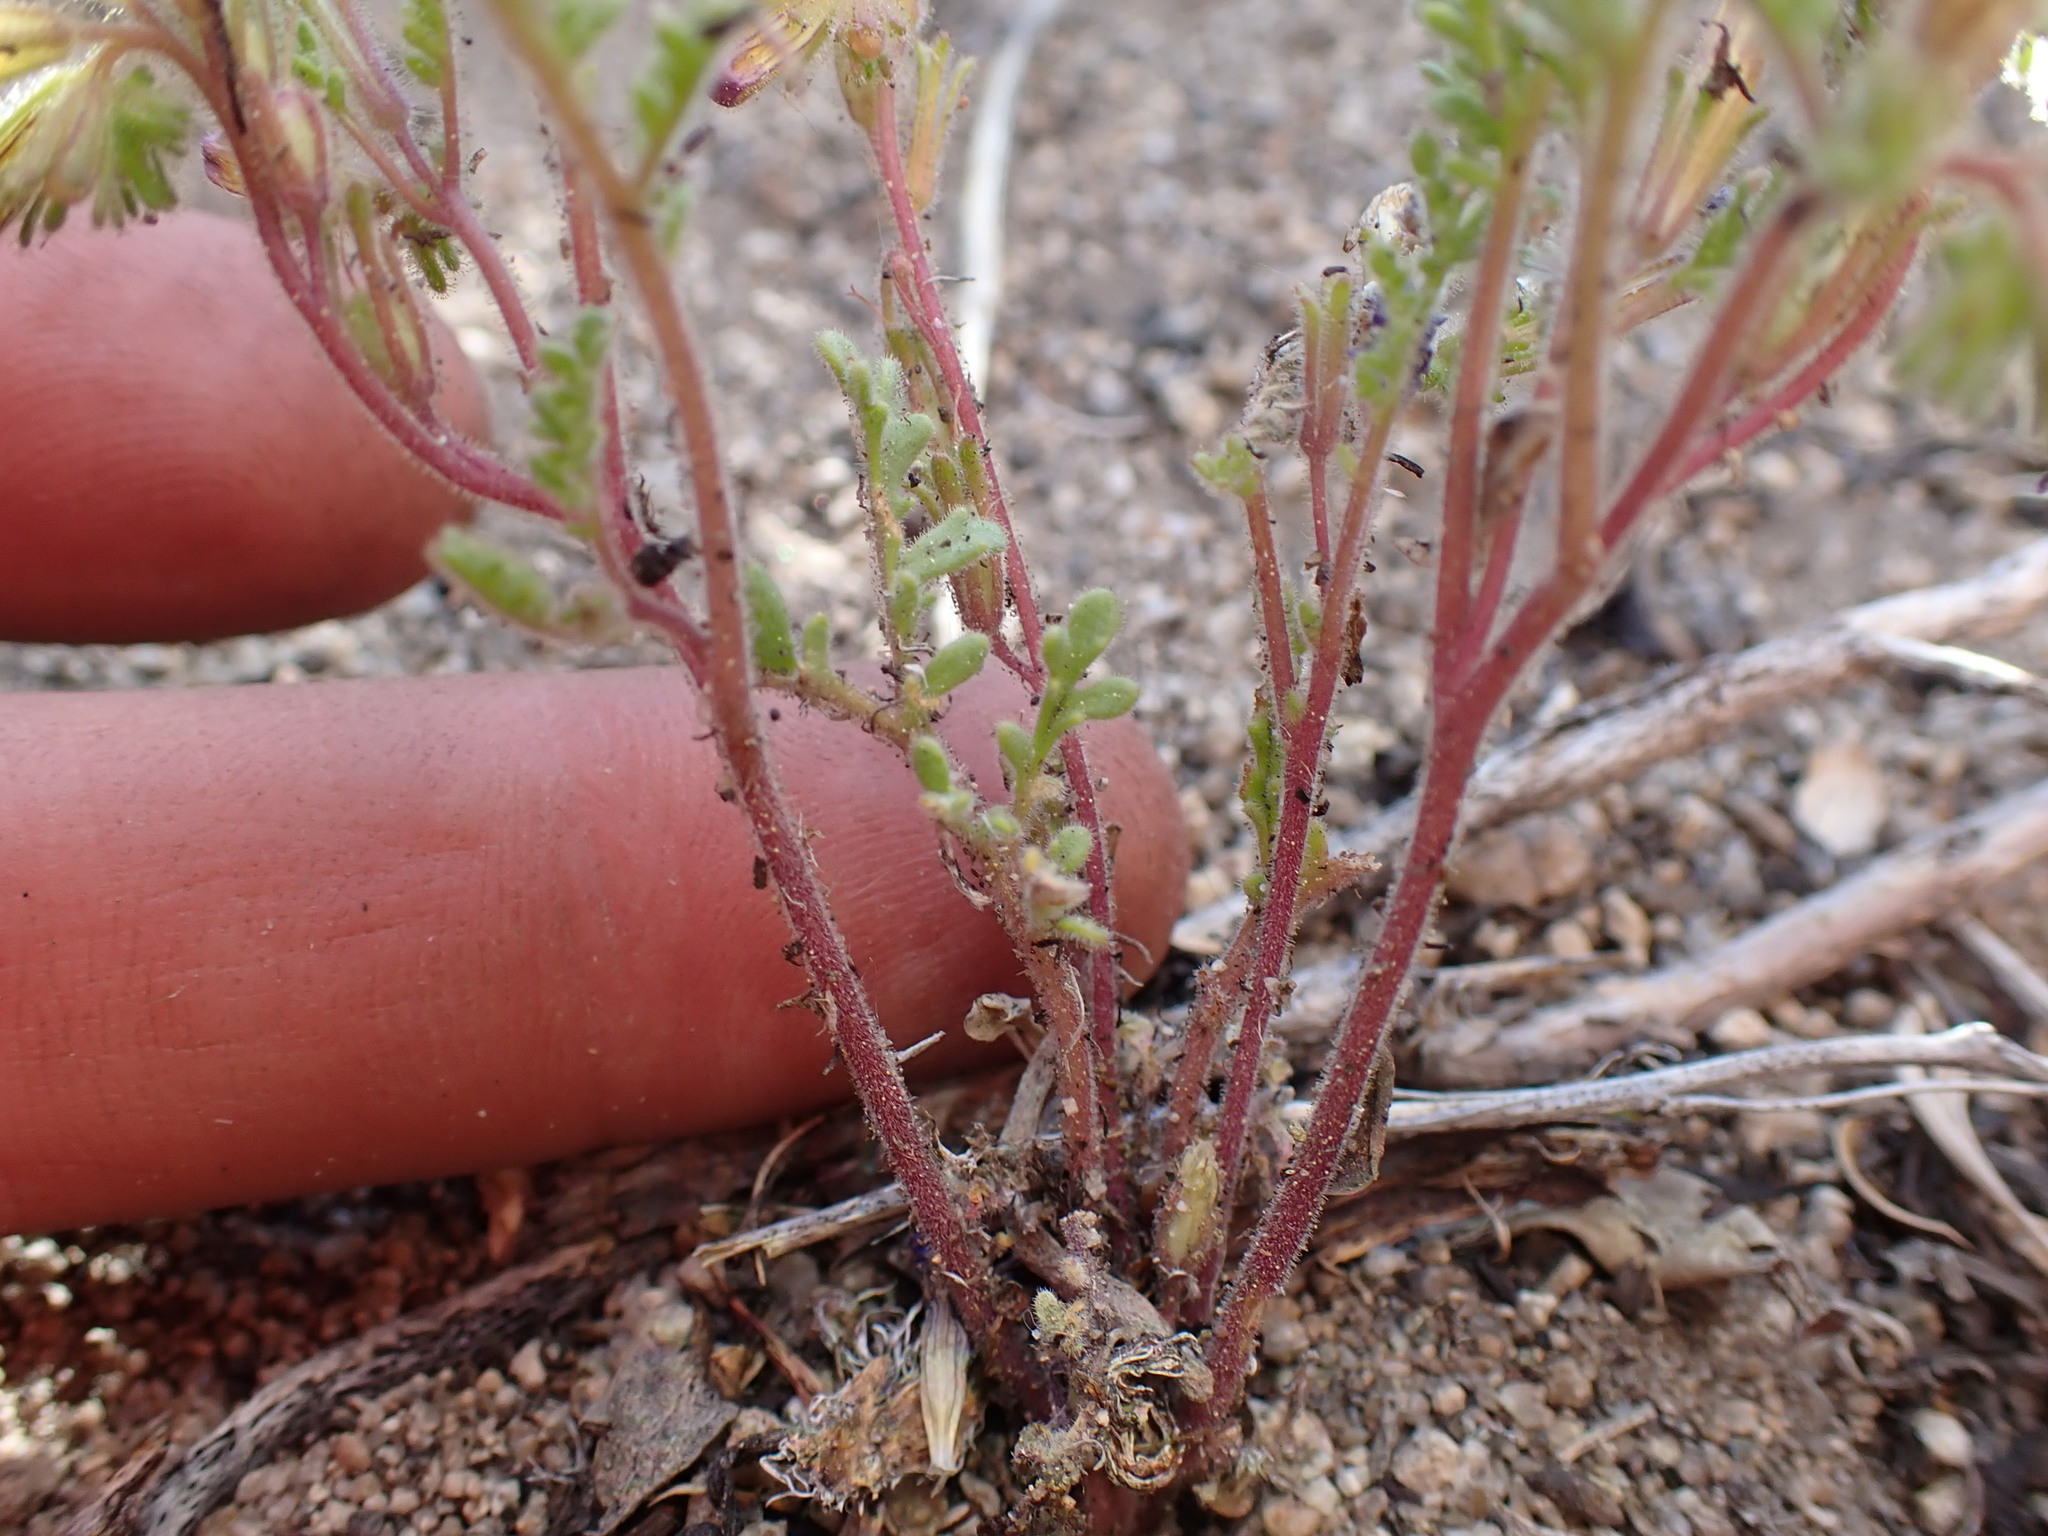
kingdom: Plantae
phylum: Tracheophyta
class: Magnoliopsida
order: Boraginales
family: Hydrophyllaceae
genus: Phacelia
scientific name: Phacelia bicolor
